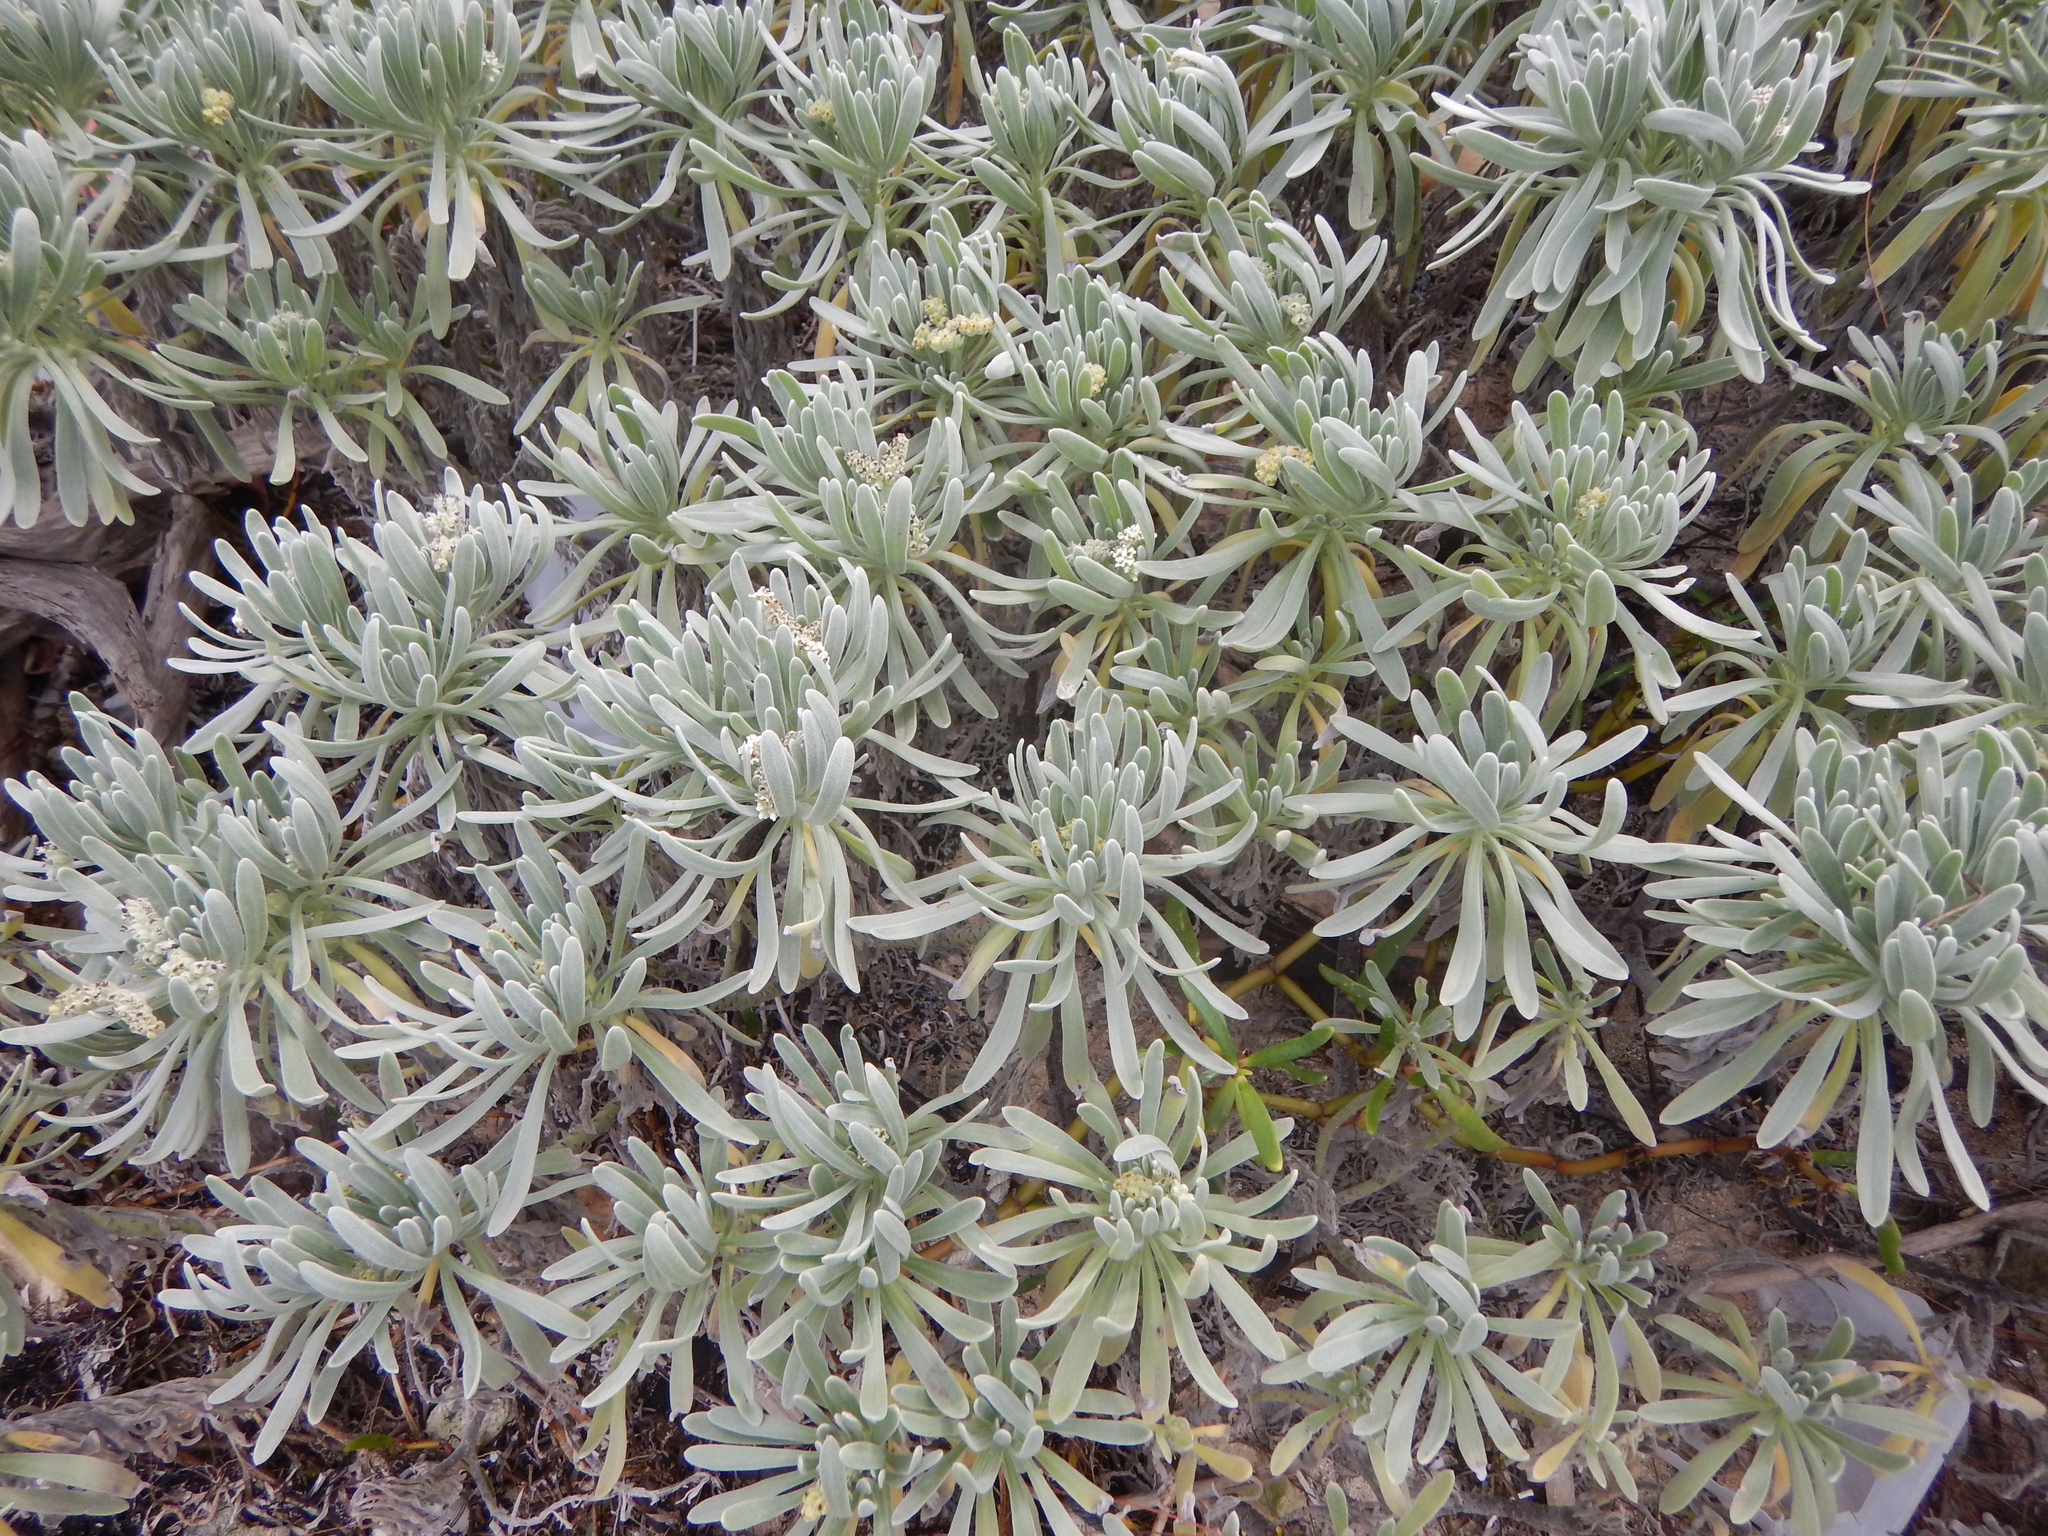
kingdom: Plantae
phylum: Tracheophyta
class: Magnoliopsida
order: Boraginales
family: Heliotropiaceae
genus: Tournefortia
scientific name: Tournefortia gnaphalodes
